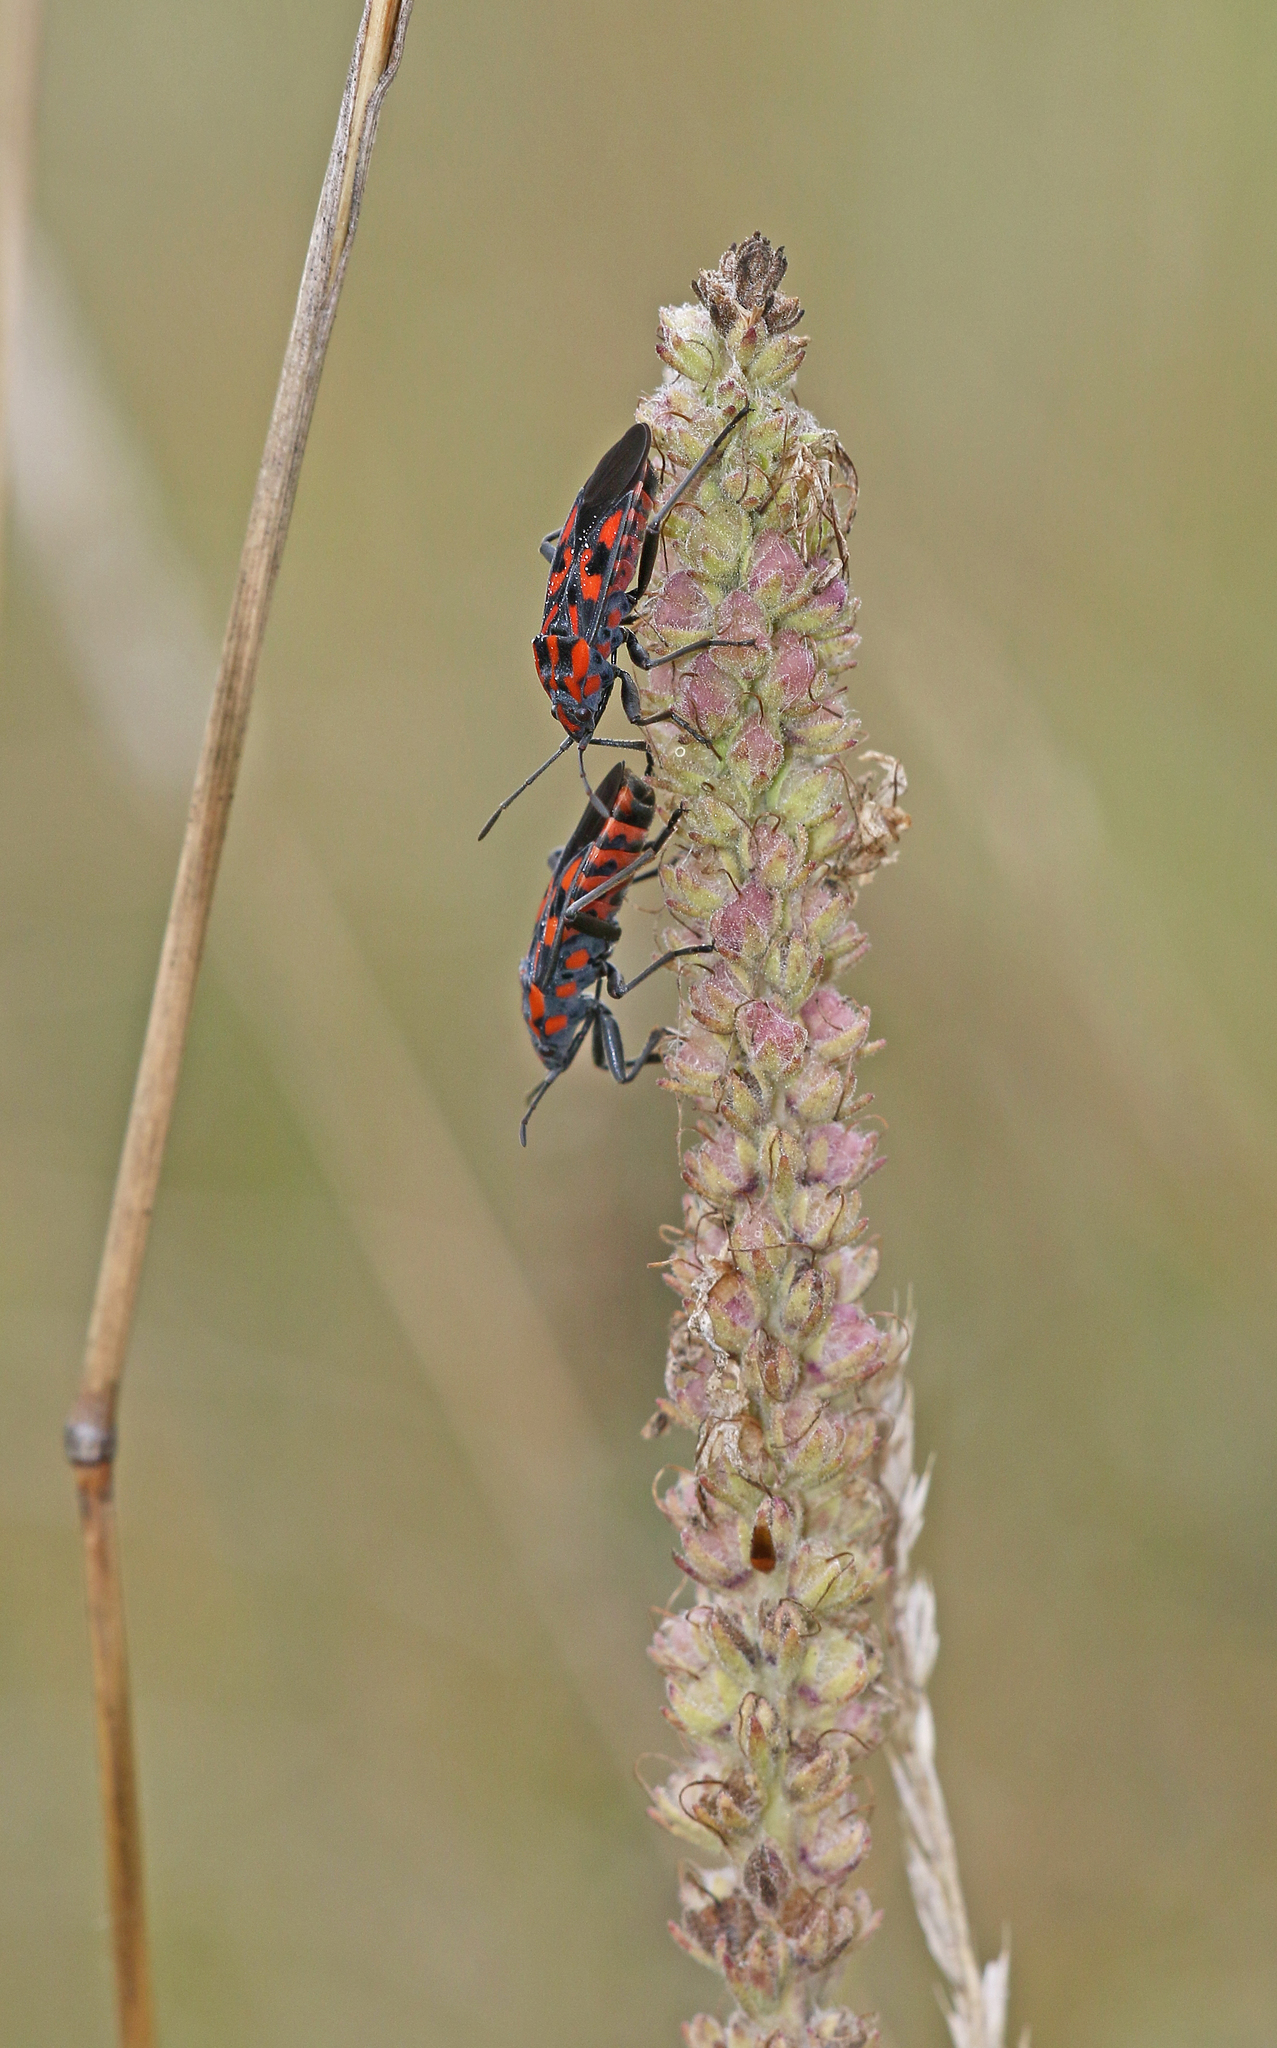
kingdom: Animalia
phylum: Arthropoda
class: Insecta
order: Hemiptera
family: Lygaeidae
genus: Spilostethus
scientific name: Spilostethus saxatilis
